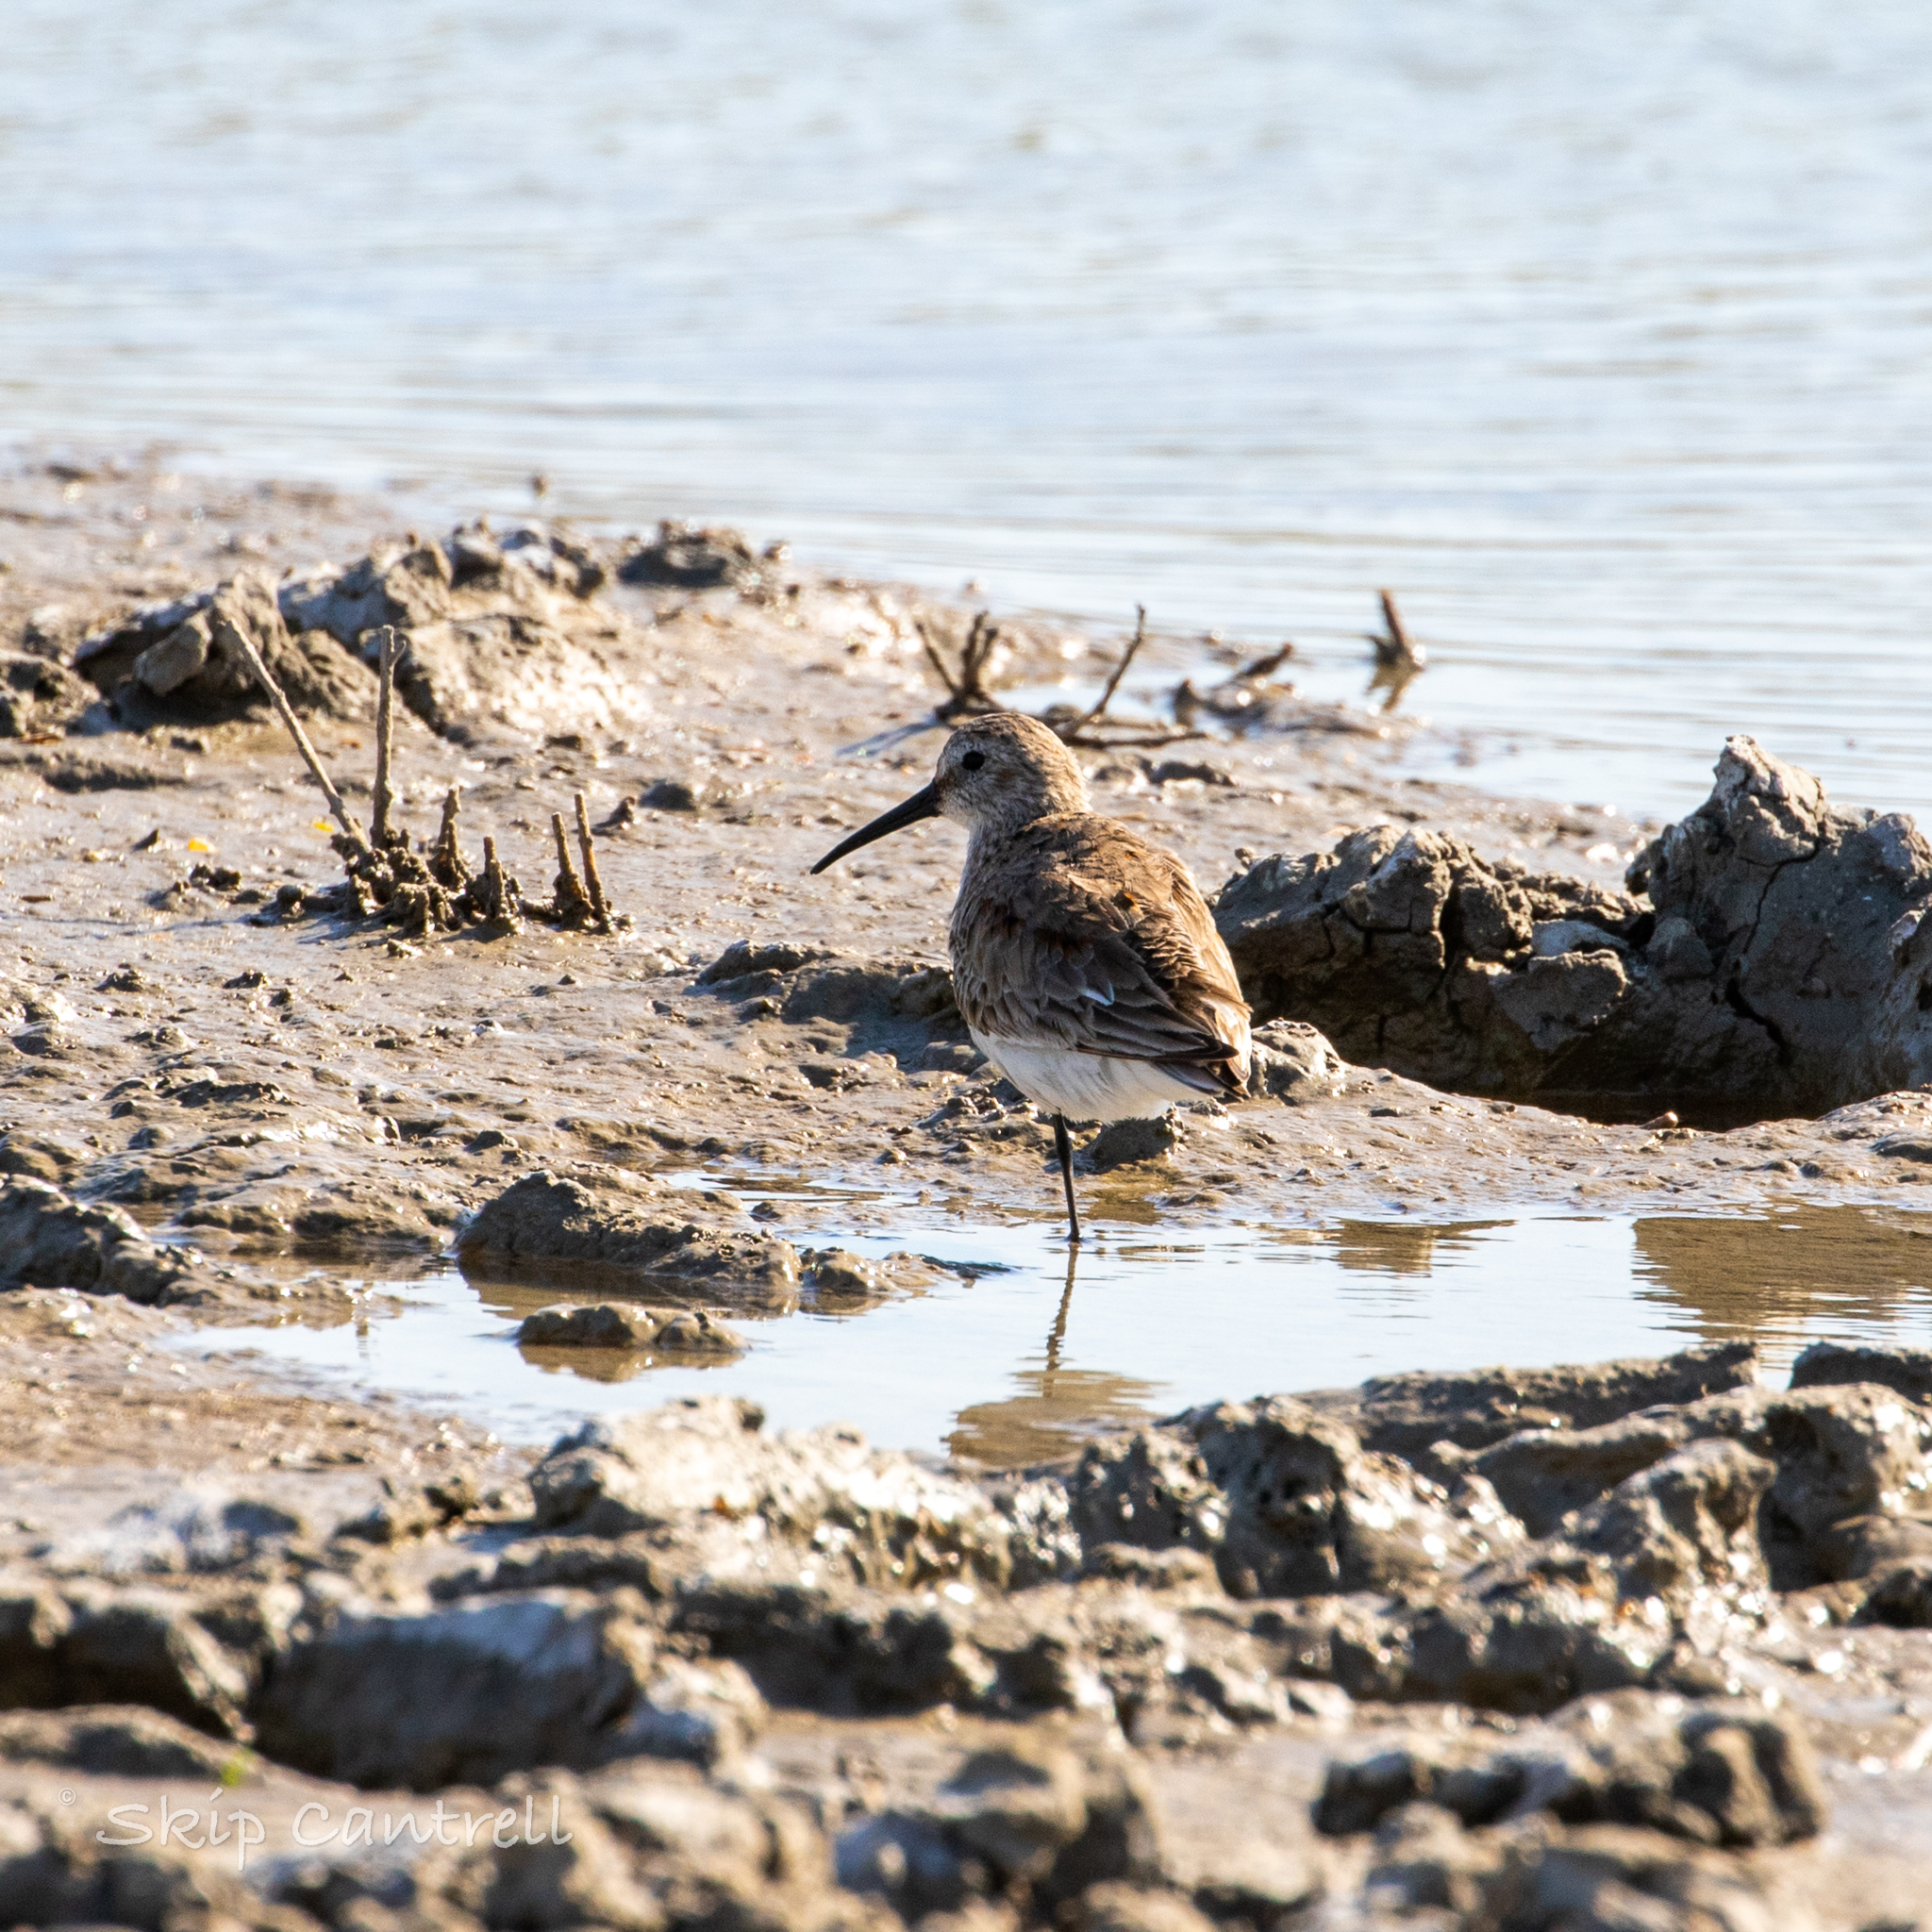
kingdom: Animalia
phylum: Chordata
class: Aves
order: Charadriiformes
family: Scolopacidae
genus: Calidris
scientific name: Calidris alpina
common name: Dunlin
